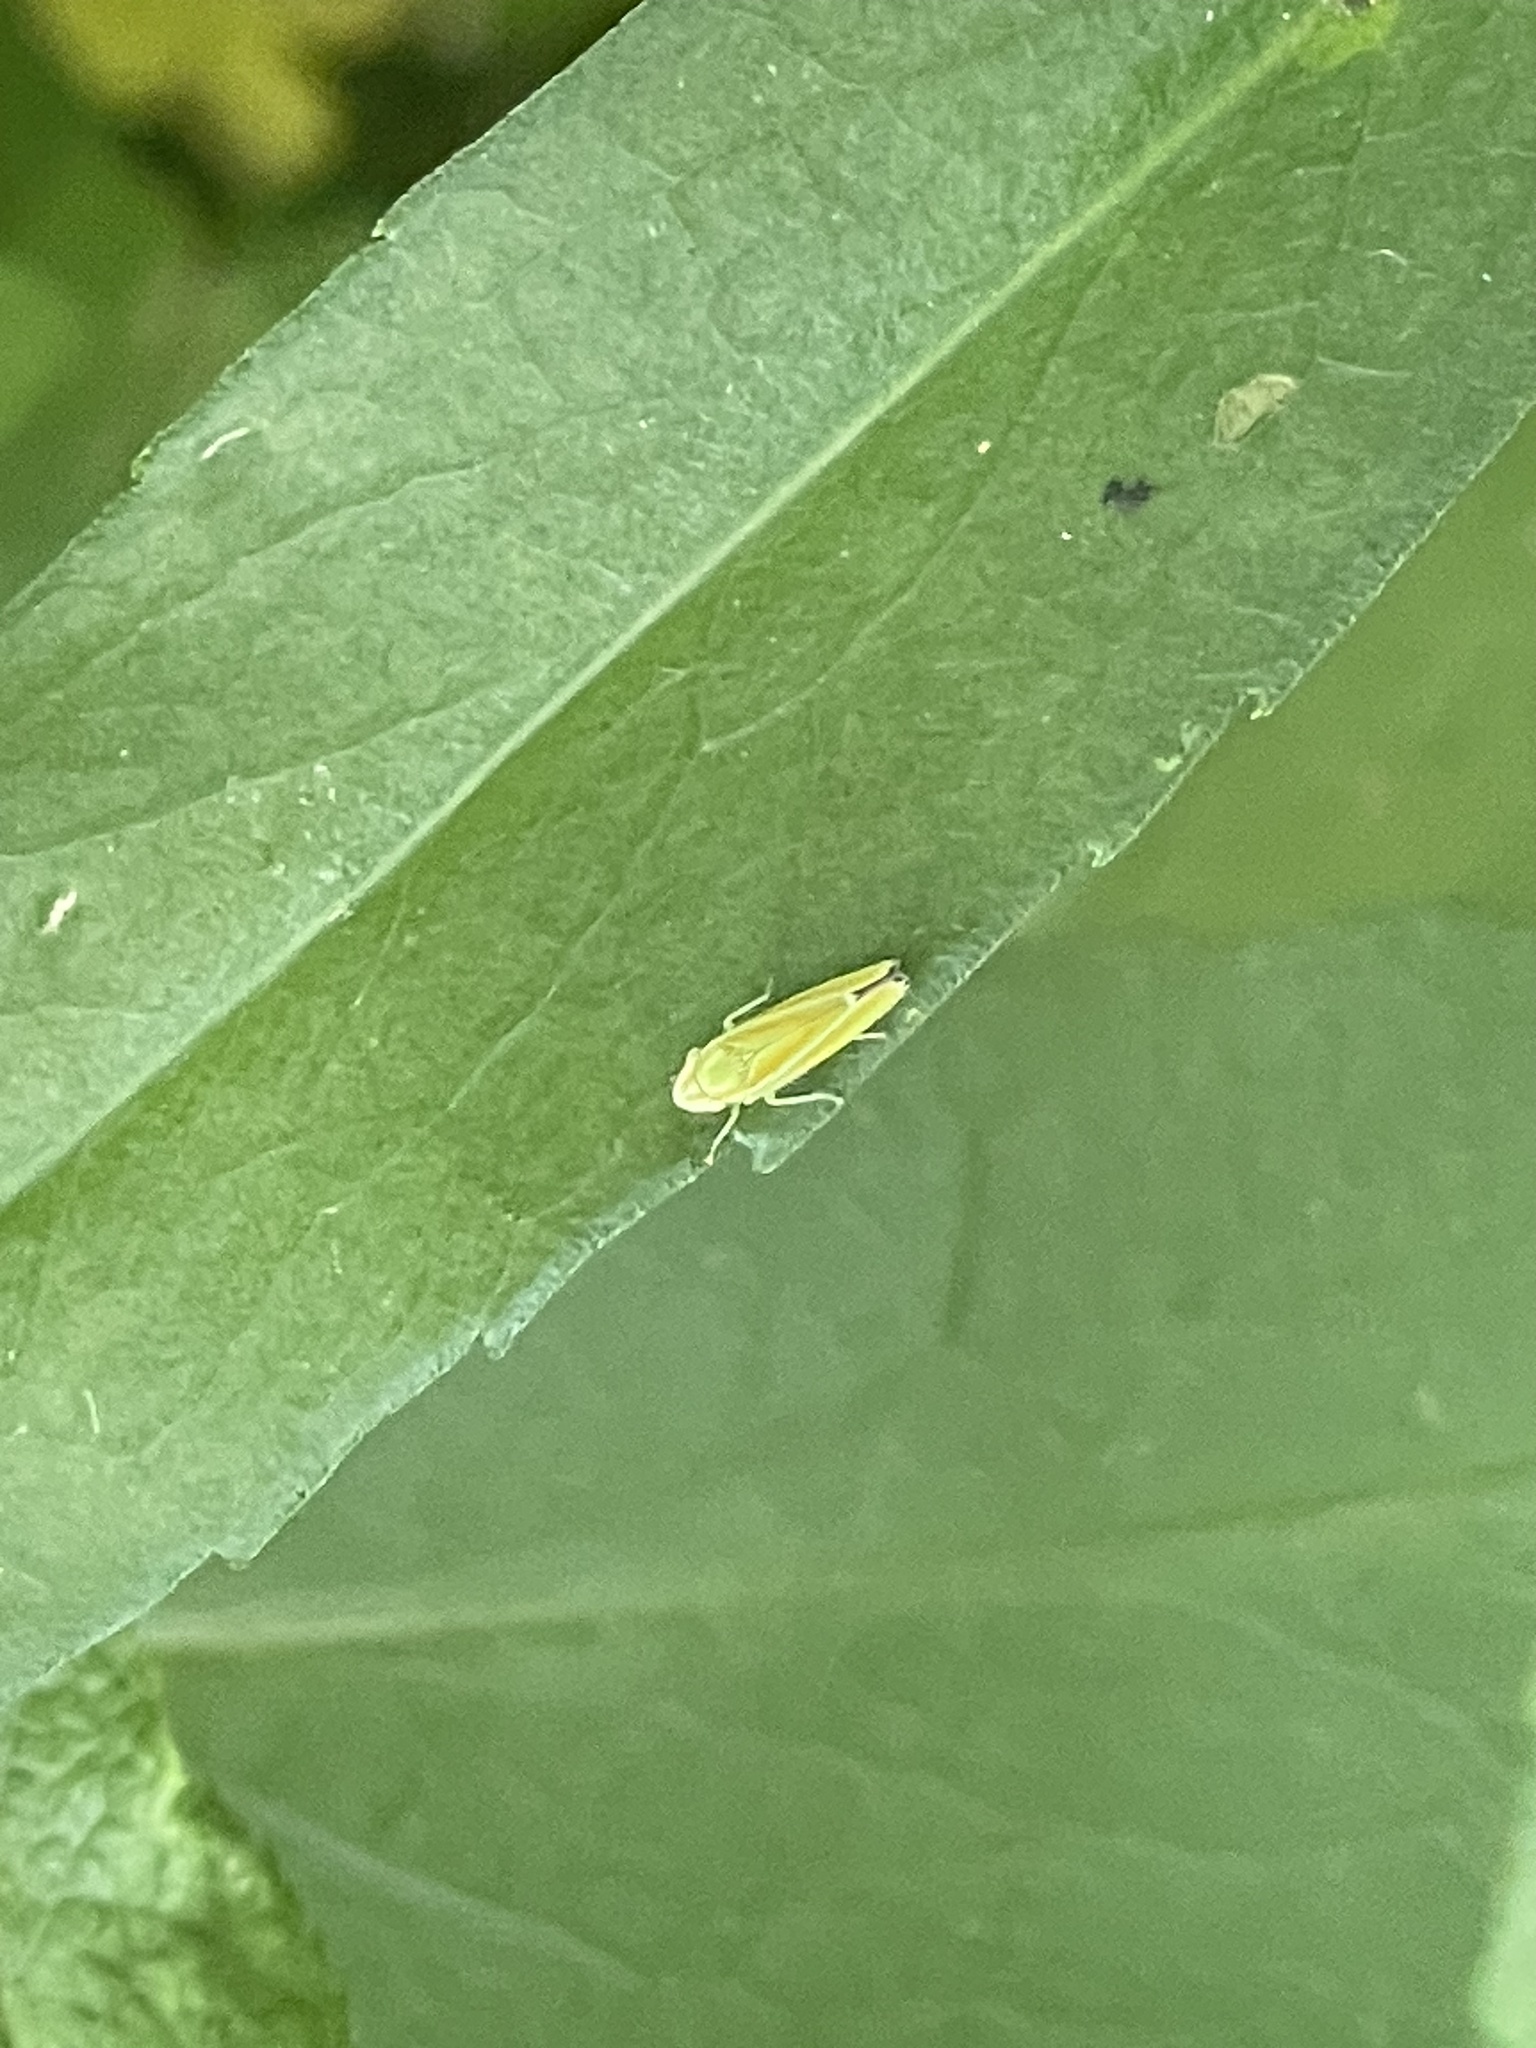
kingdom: Animalia
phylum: Arthropoda
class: Insecta
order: Hemiptera
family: Cicadellidae
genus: Graphocephala
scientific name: Graphocephala versuta
